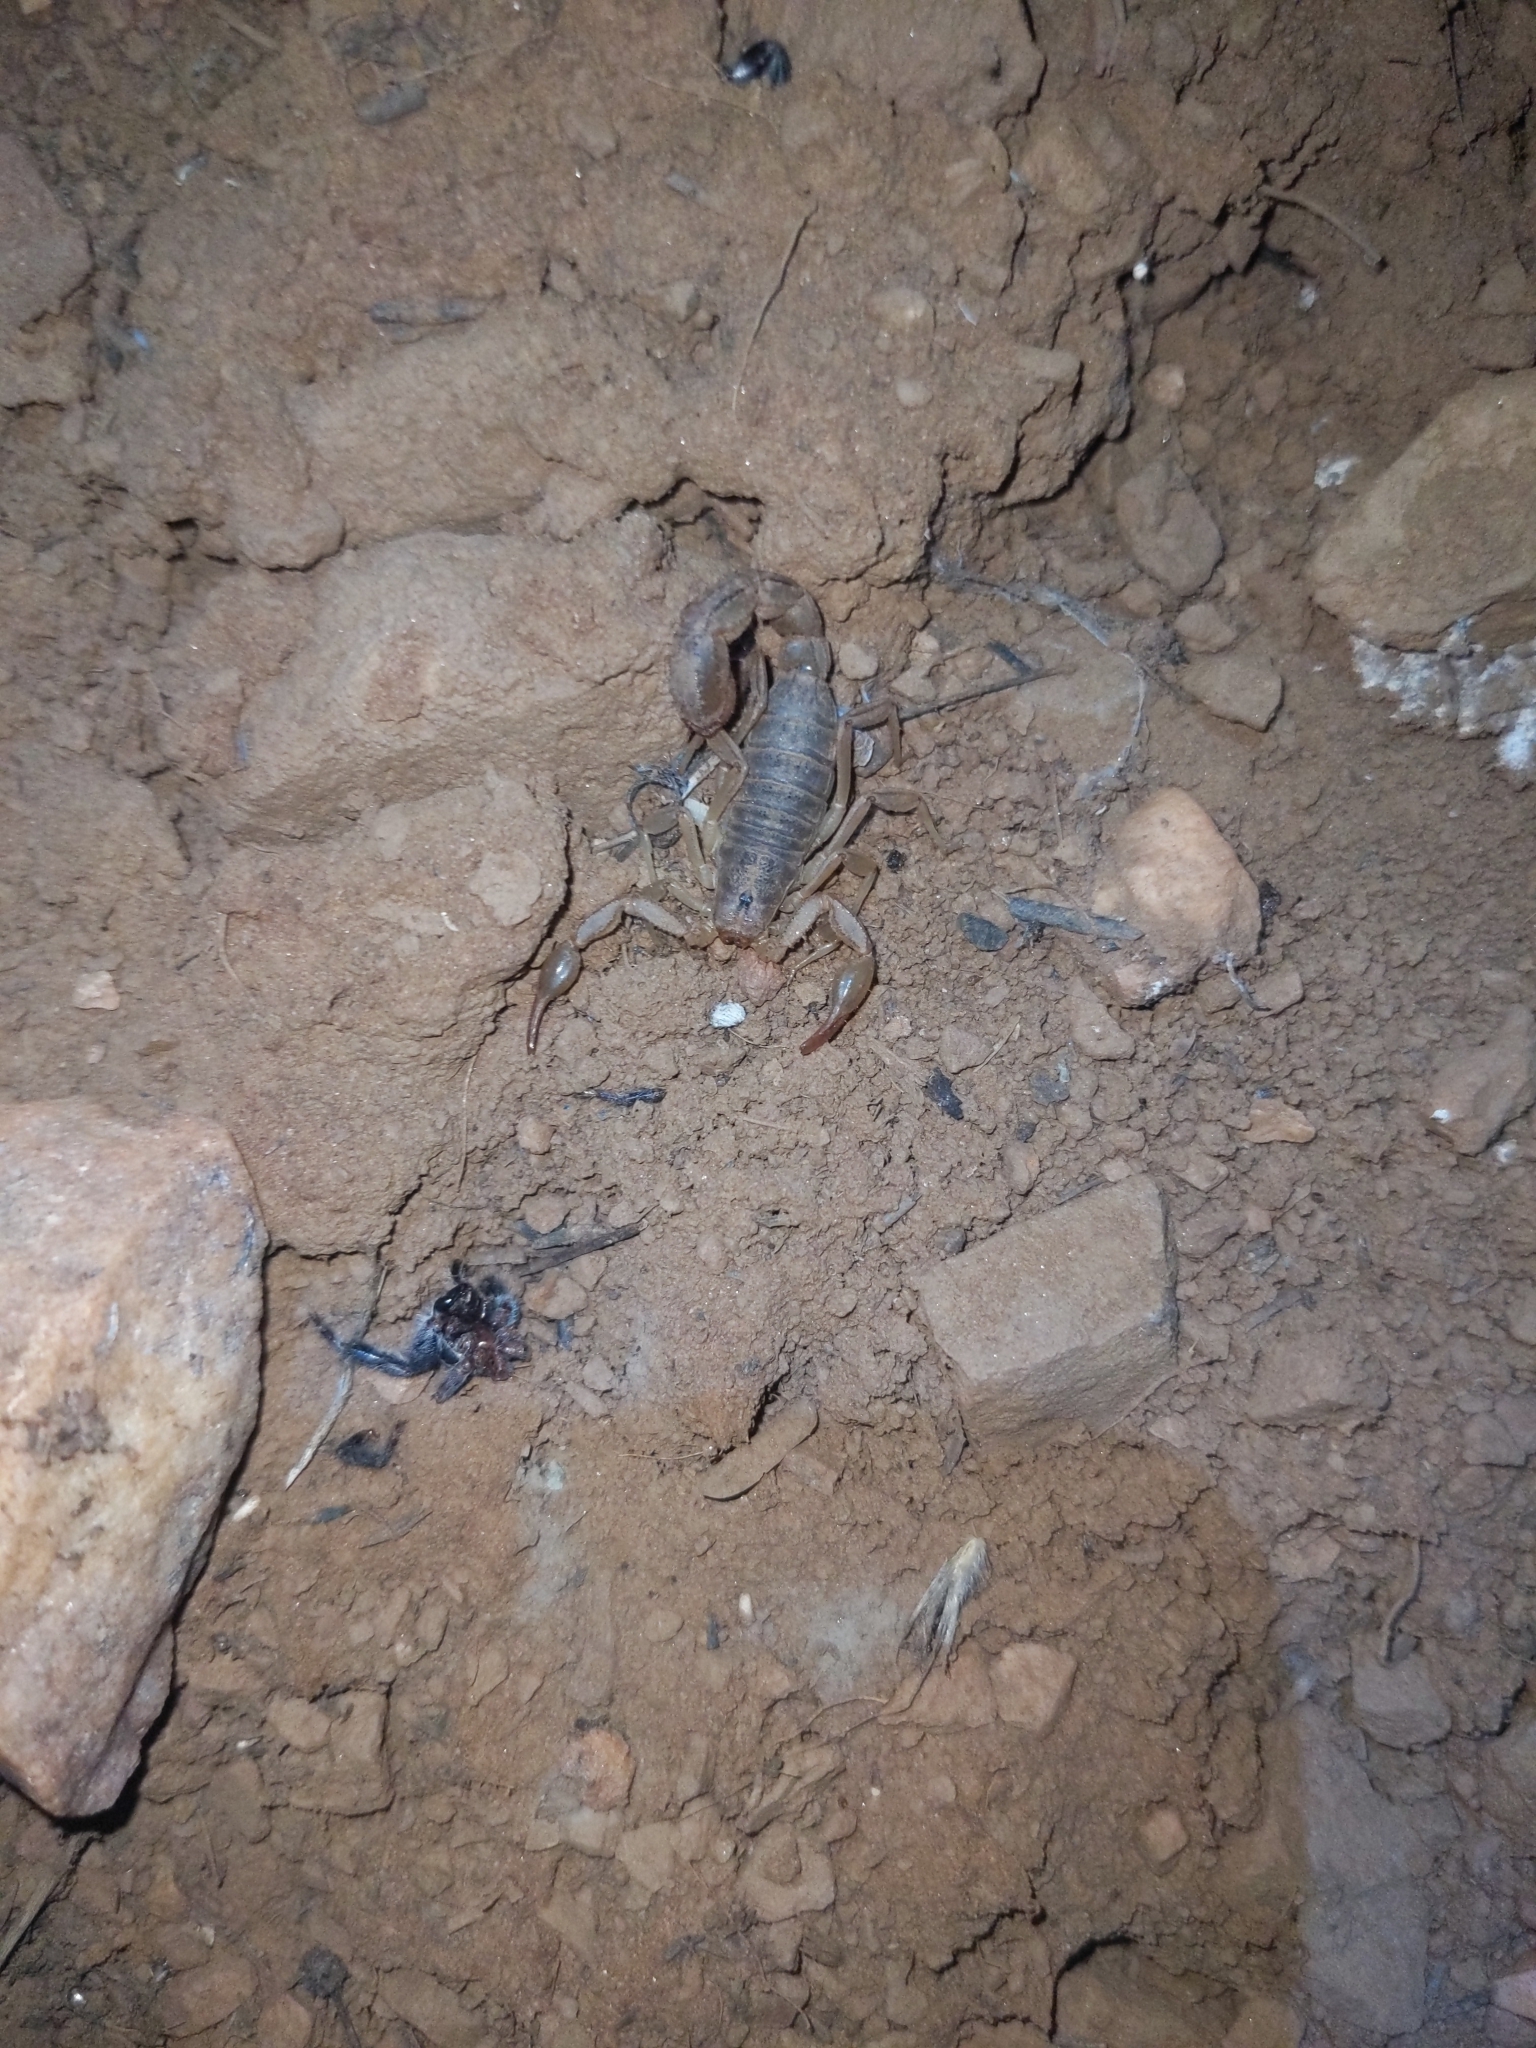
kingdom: Animalia
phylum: Arthropoda
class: Arachnida
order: Scorpiones
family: Vaejovidae
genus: Paravaejovis
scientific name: Paravaejovis spinigerus
